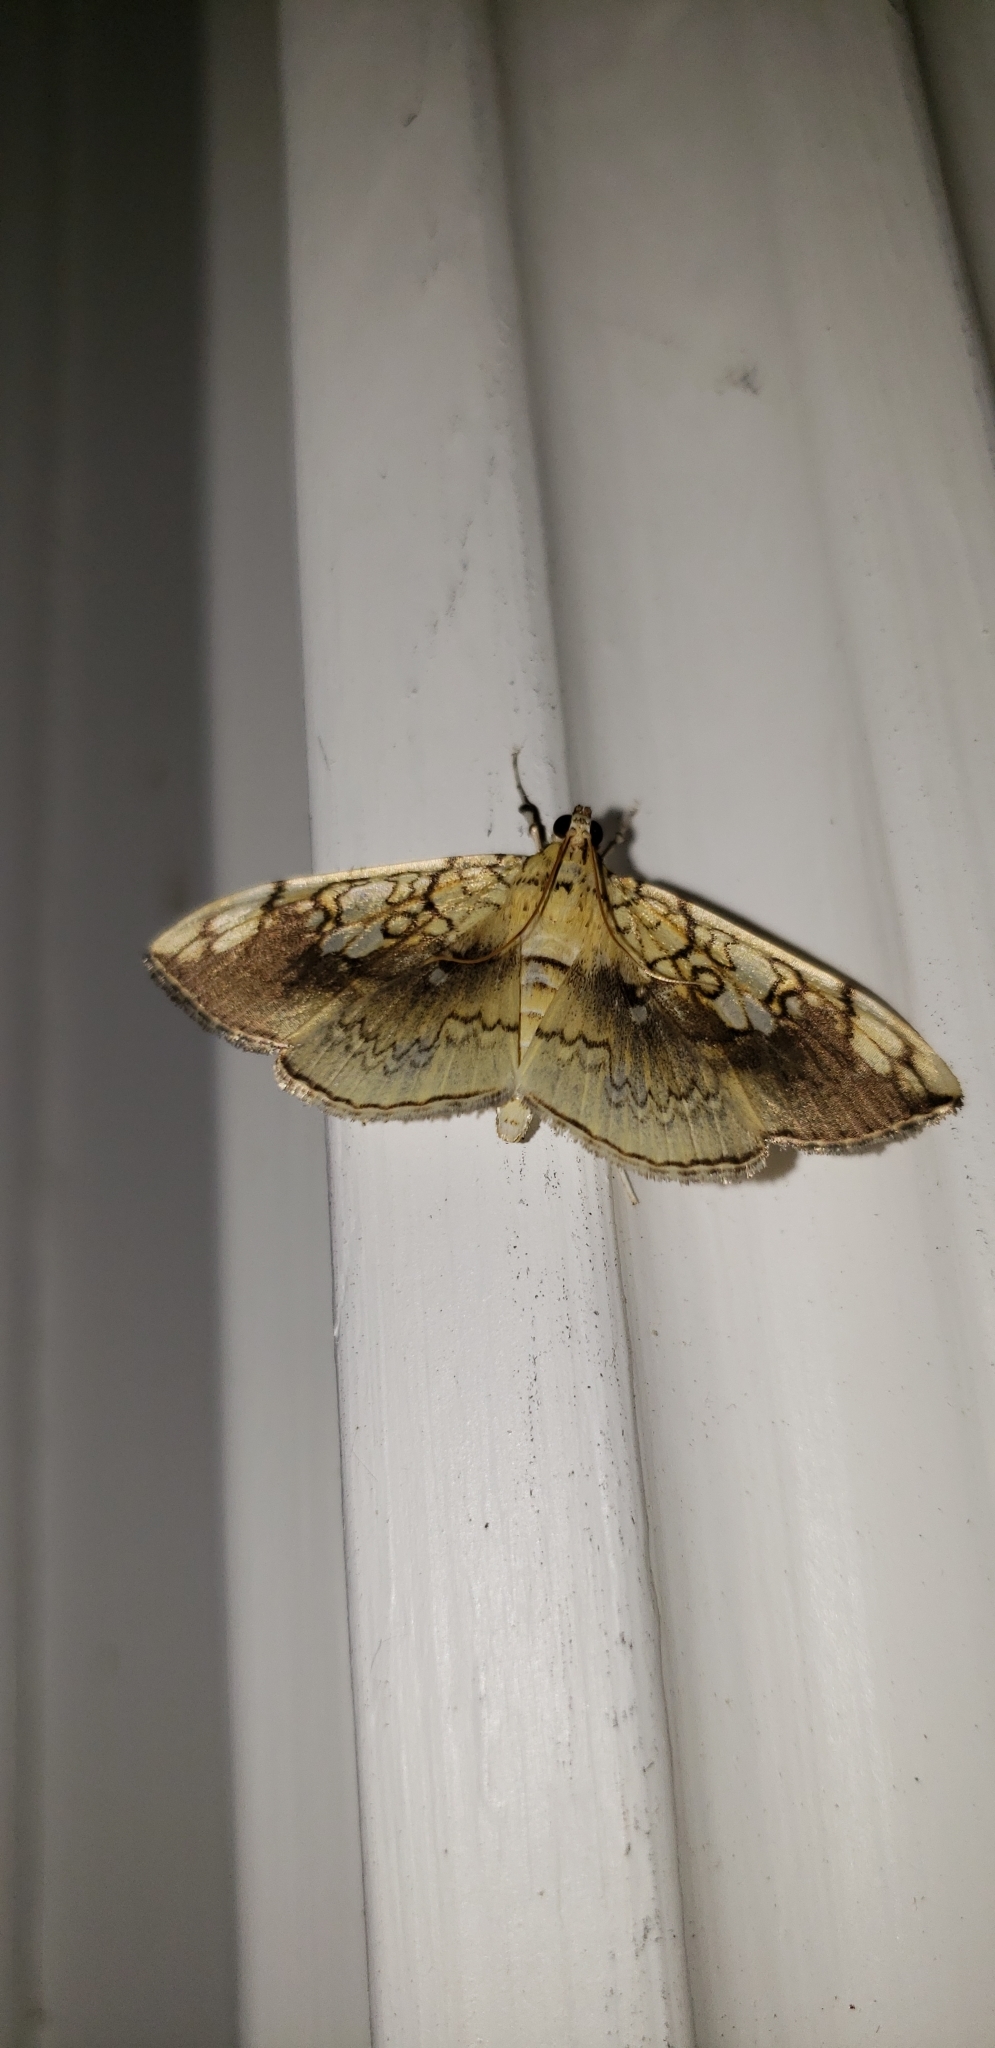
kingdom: Animalia
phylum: Arthropoda
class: Insecta
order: Lepidoptera
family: Crambidae
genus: Pantographa
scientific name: Pantographa limata
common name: Basswood leafroller moth
